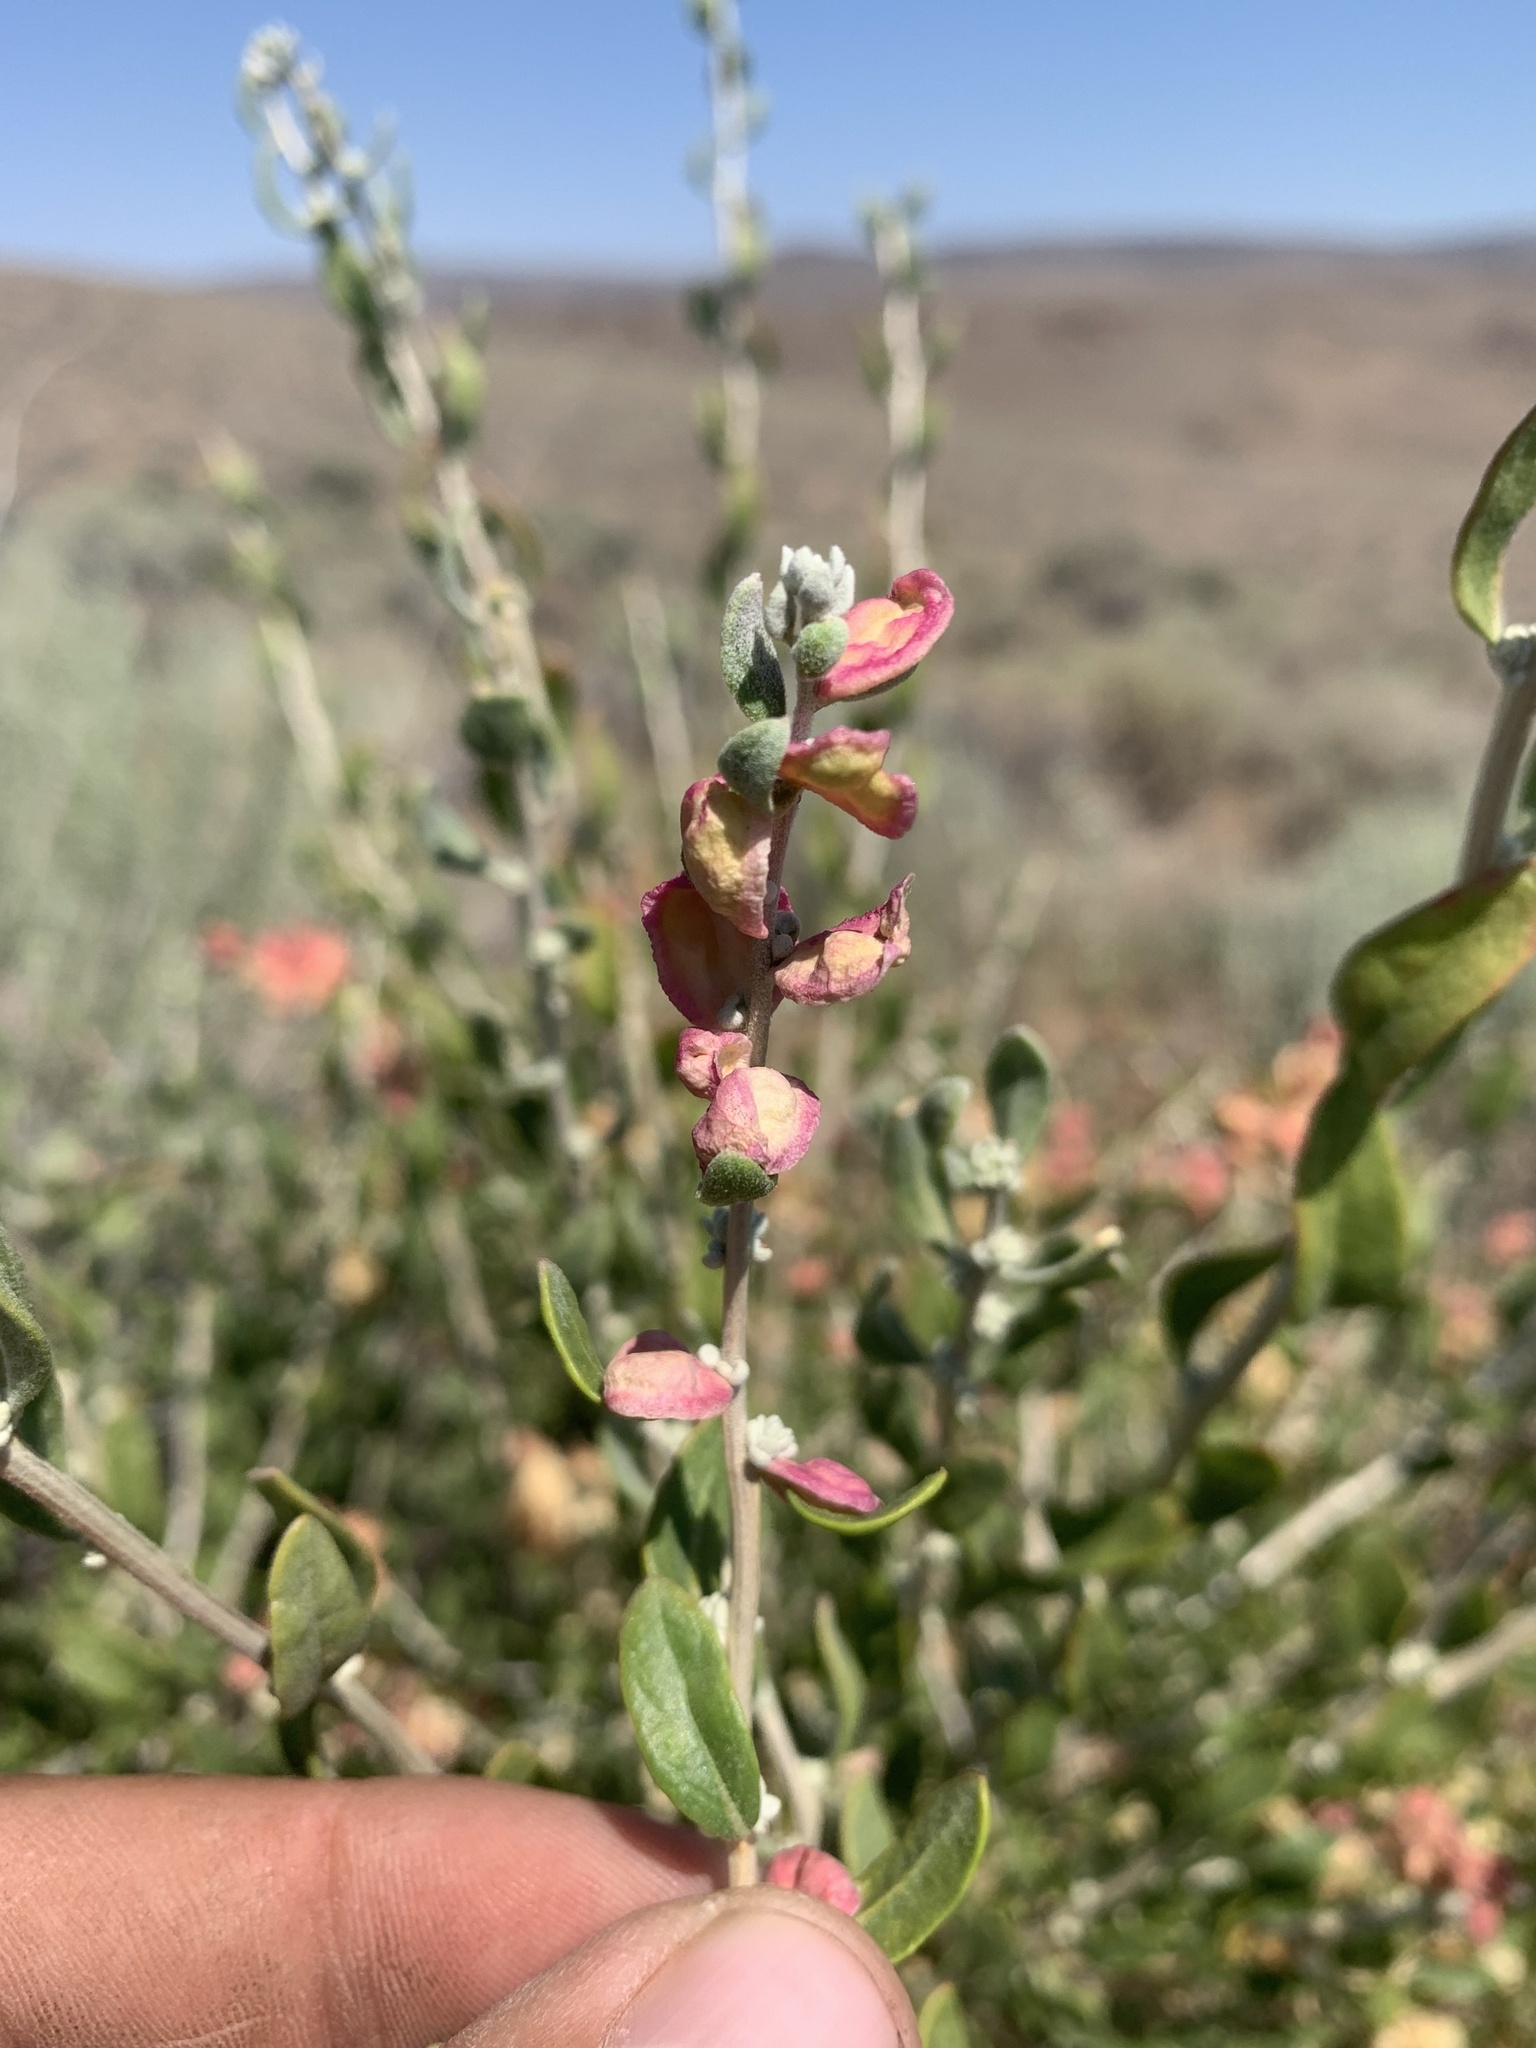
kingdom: Plantae
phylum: Tracheophyta
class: Magnoliopsida
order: Caryophyllales
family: Amaranthaceae
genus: Grayia
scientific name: Grayia spinosa
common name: Spiny hopsage
